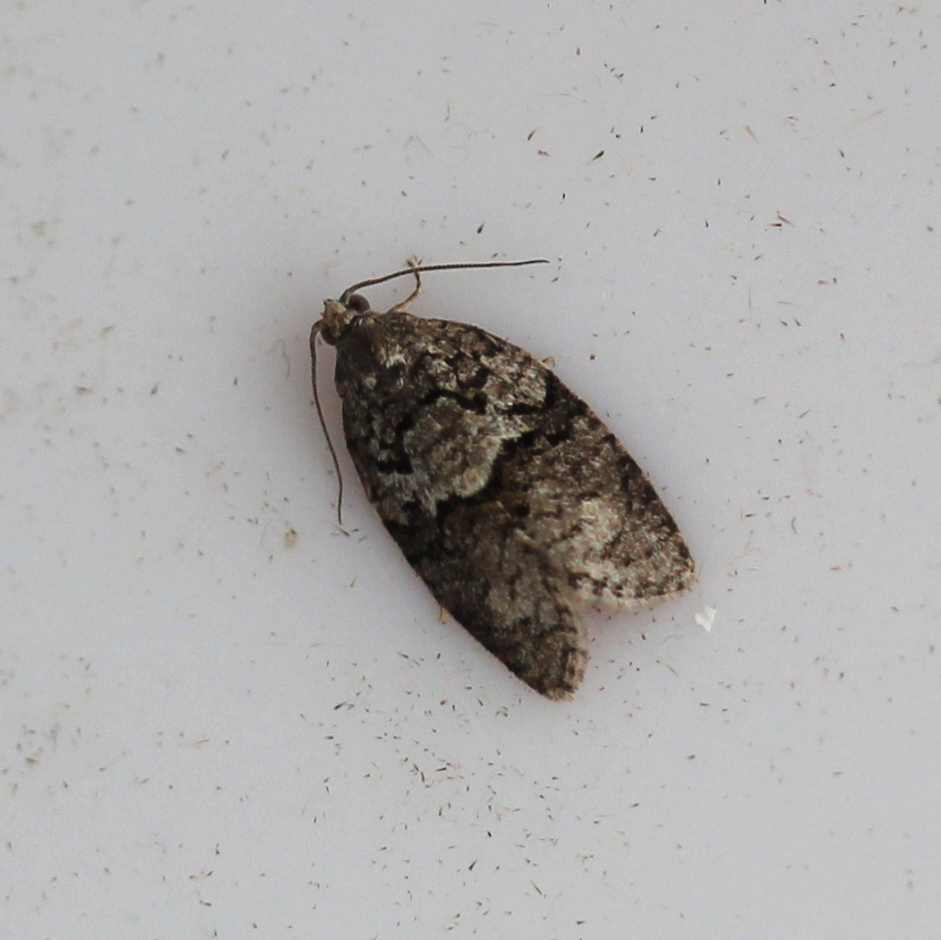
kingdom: Animalia
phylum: Arthropoda
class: Insecta
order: Lepidoptera
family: Tortricidae
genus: Syndemis
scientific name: Syndemis afflictana
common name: Gray leafroller moth
